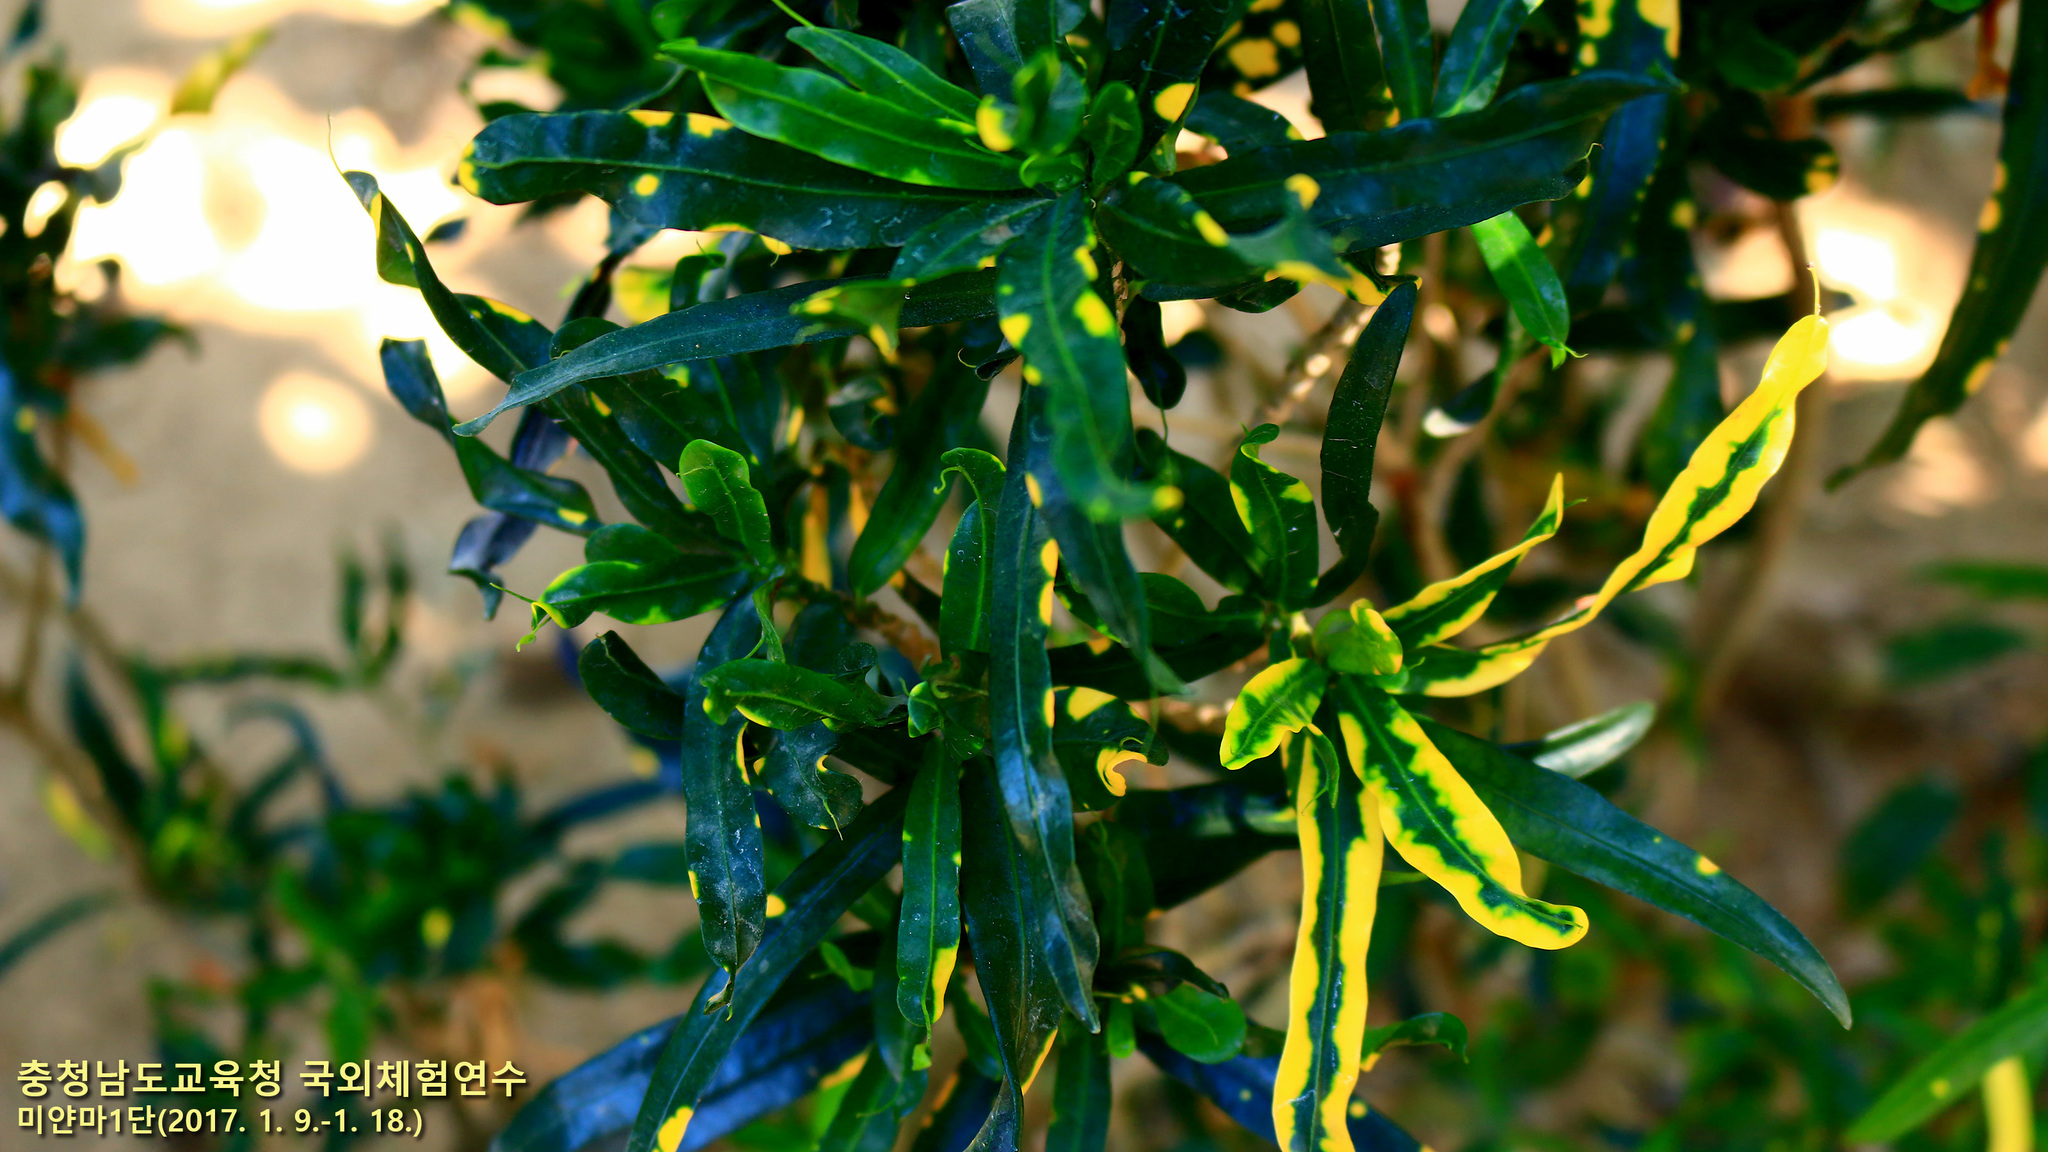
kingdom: Plantae
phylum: Tracheophyta
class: Magnoliopsida
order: Malpighiales
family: Euphorbiaceae
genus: Codiaeum
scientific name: Codiaeum variegatum
